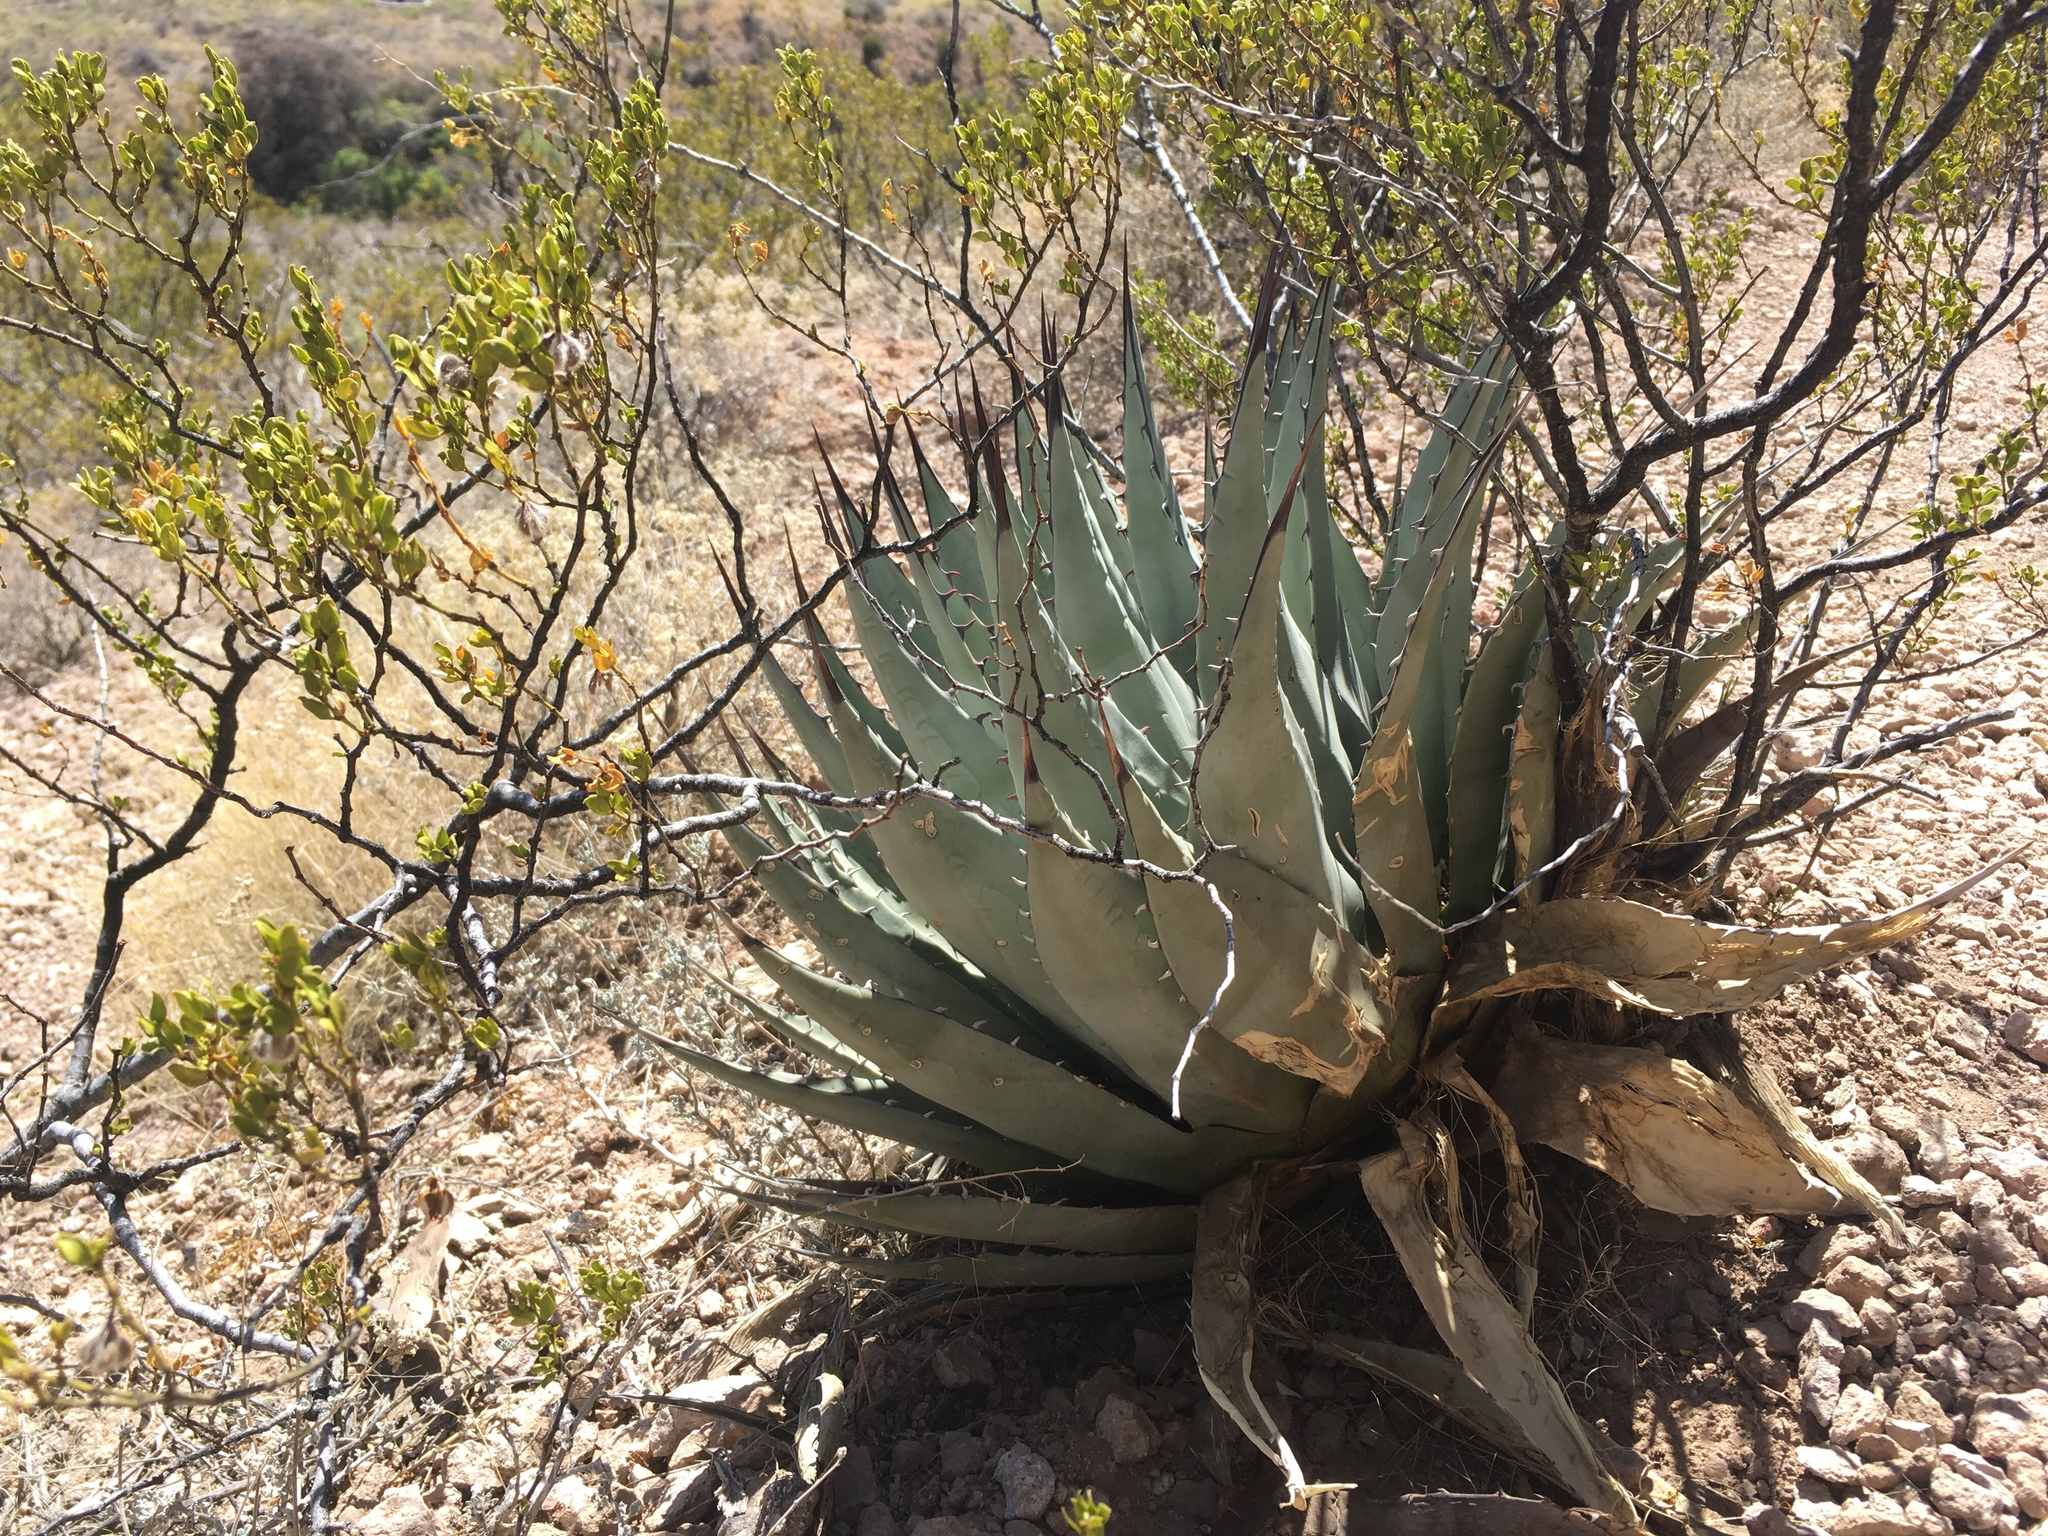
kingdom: Plantae
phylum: Tracheophyta
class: Liliopsida
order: Asparagales
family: Asparagaceae
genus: Agave
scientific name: Agave parryi
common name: Parry's agave
